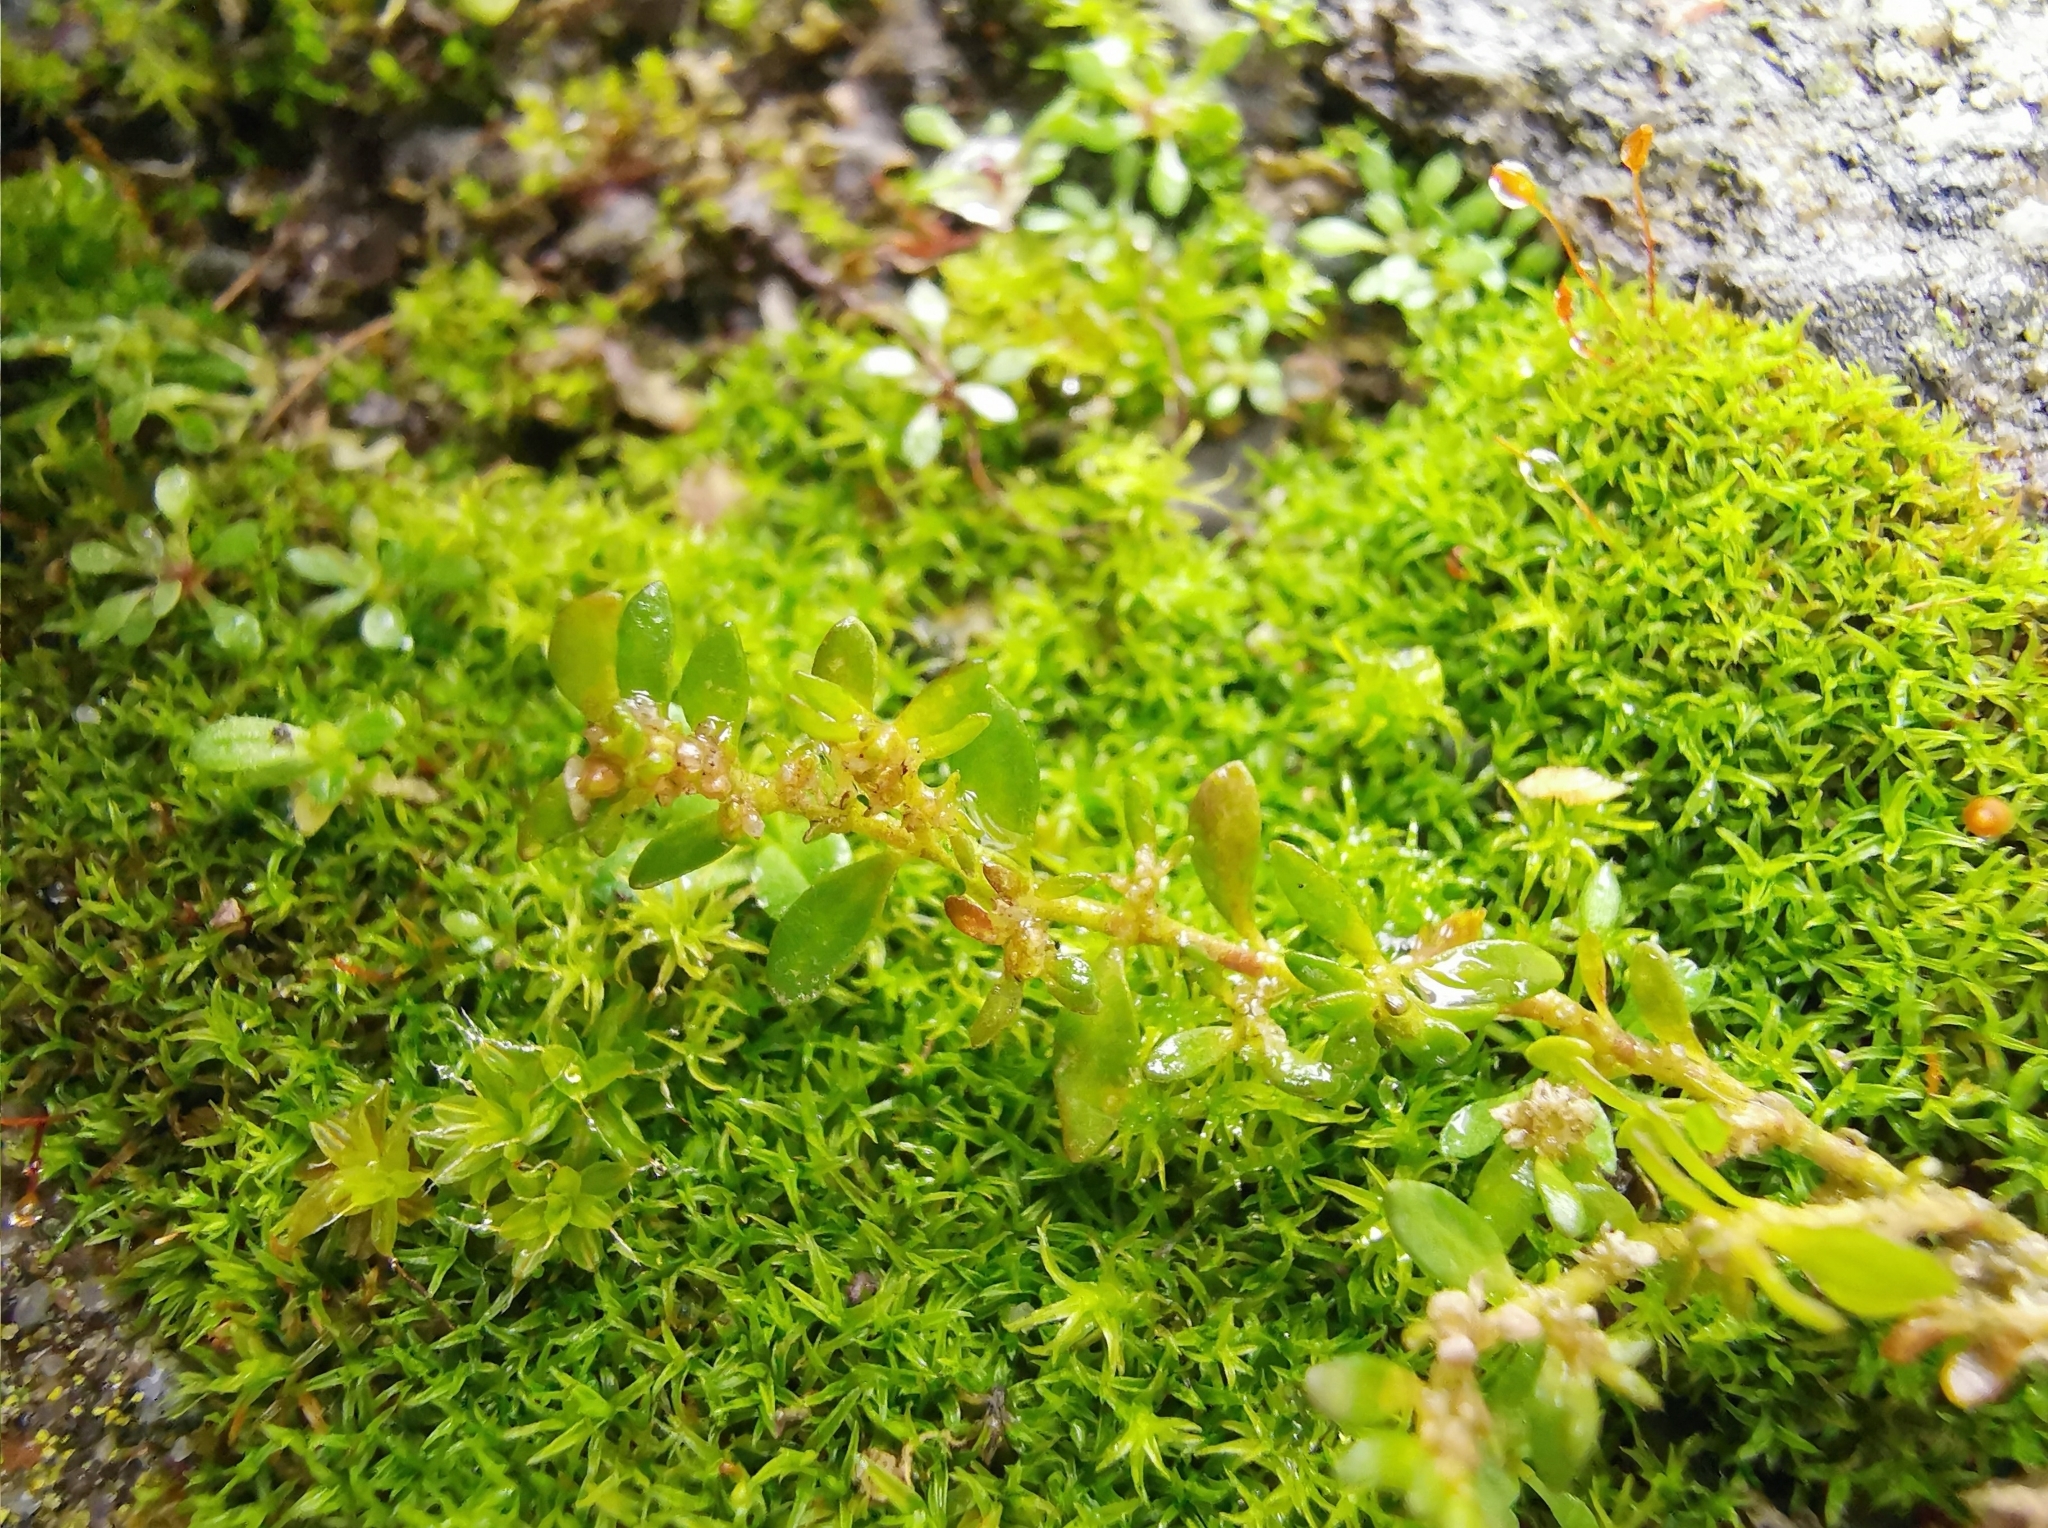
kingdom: Plantae
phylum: Tracheophyta
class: Magnoliopsida
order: Caryophyllales
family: Caryophyllaceae
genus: Herniaria
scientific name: Herniaria glabra
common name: Smooth rupturewort
